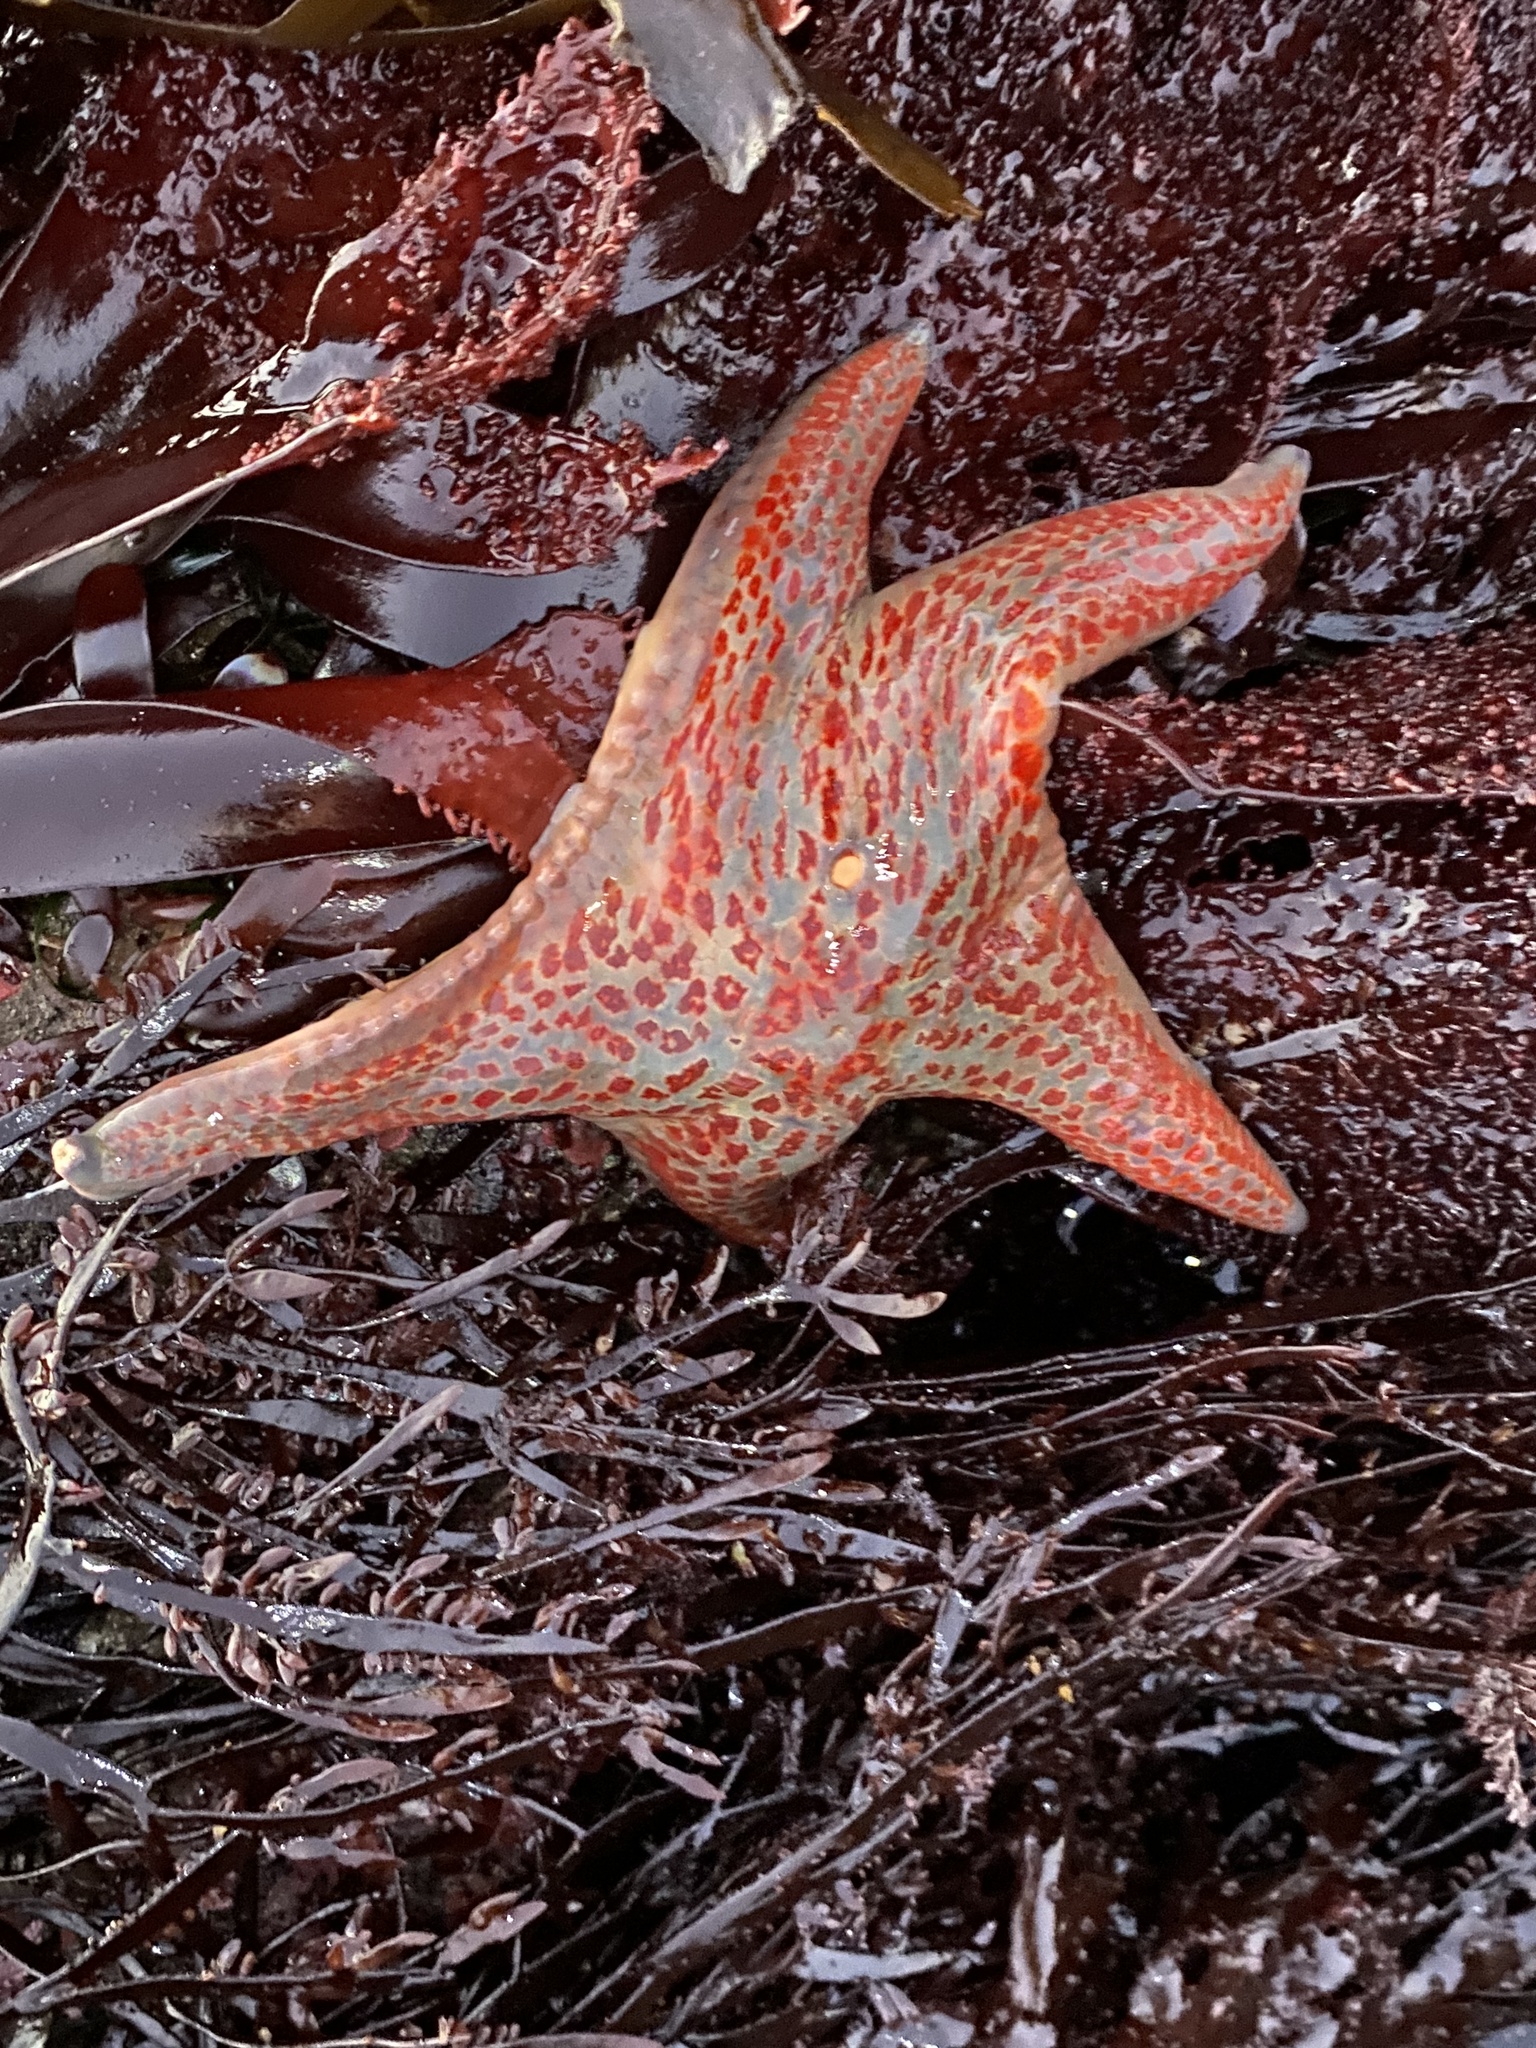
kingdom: Animalia
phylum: Echinodermata
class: Asteroidea
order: Valvatida
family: Asteropseidae
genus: Dermasterias
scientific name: Dermasterias imbricata
